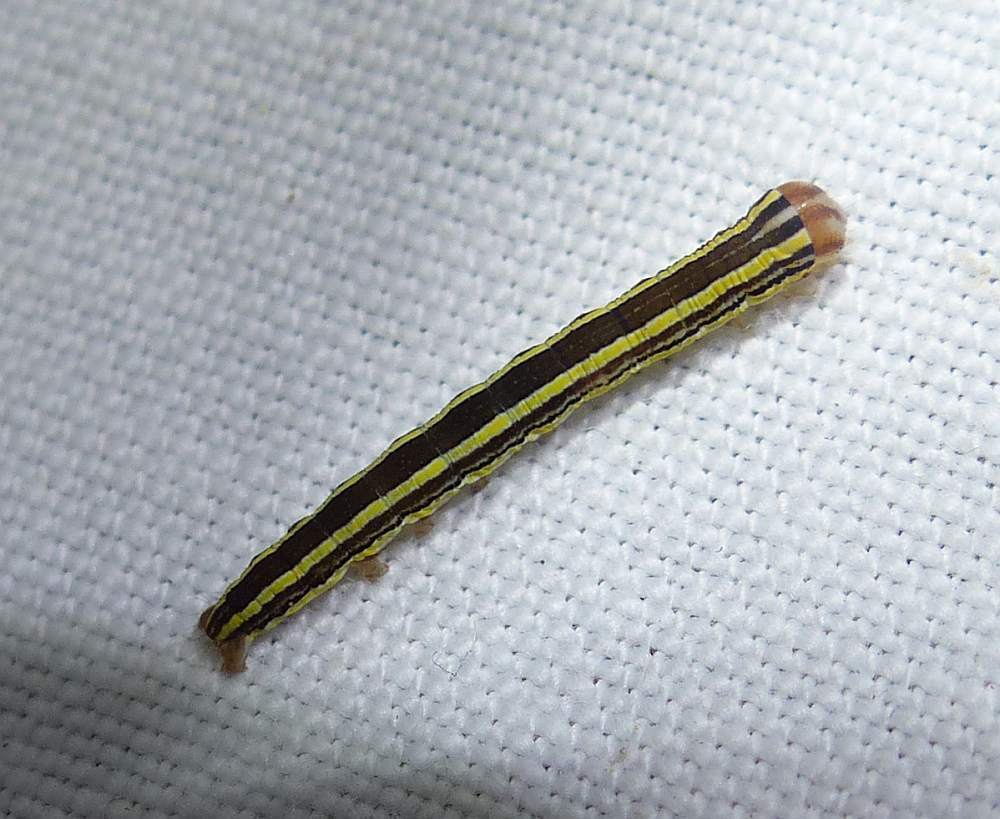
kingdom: Animalia
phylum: Arthropoda
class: Insecta
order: Lepidoptera
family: Noctuidae
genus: Trichordestra
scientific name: Trichordestra legitima
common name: Striped garden caterpillar
